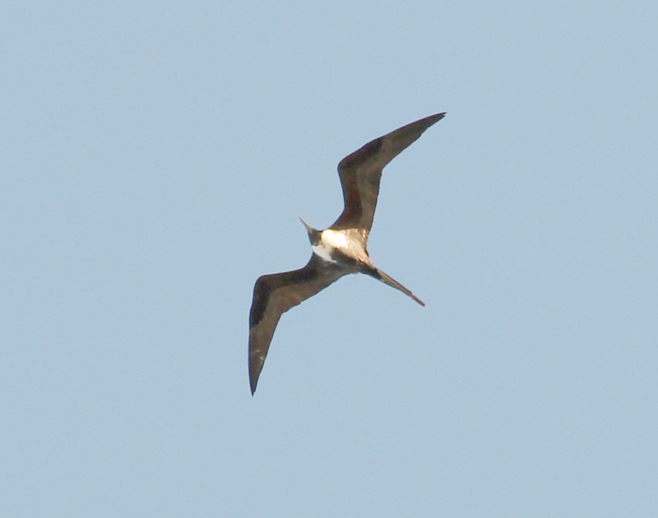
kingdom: Animalia
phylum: Chordata
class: Aves
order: Suliformes
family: Fregatidae
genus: Fregata
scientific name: Fregata magnificens
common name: Magnificent frigatebird
